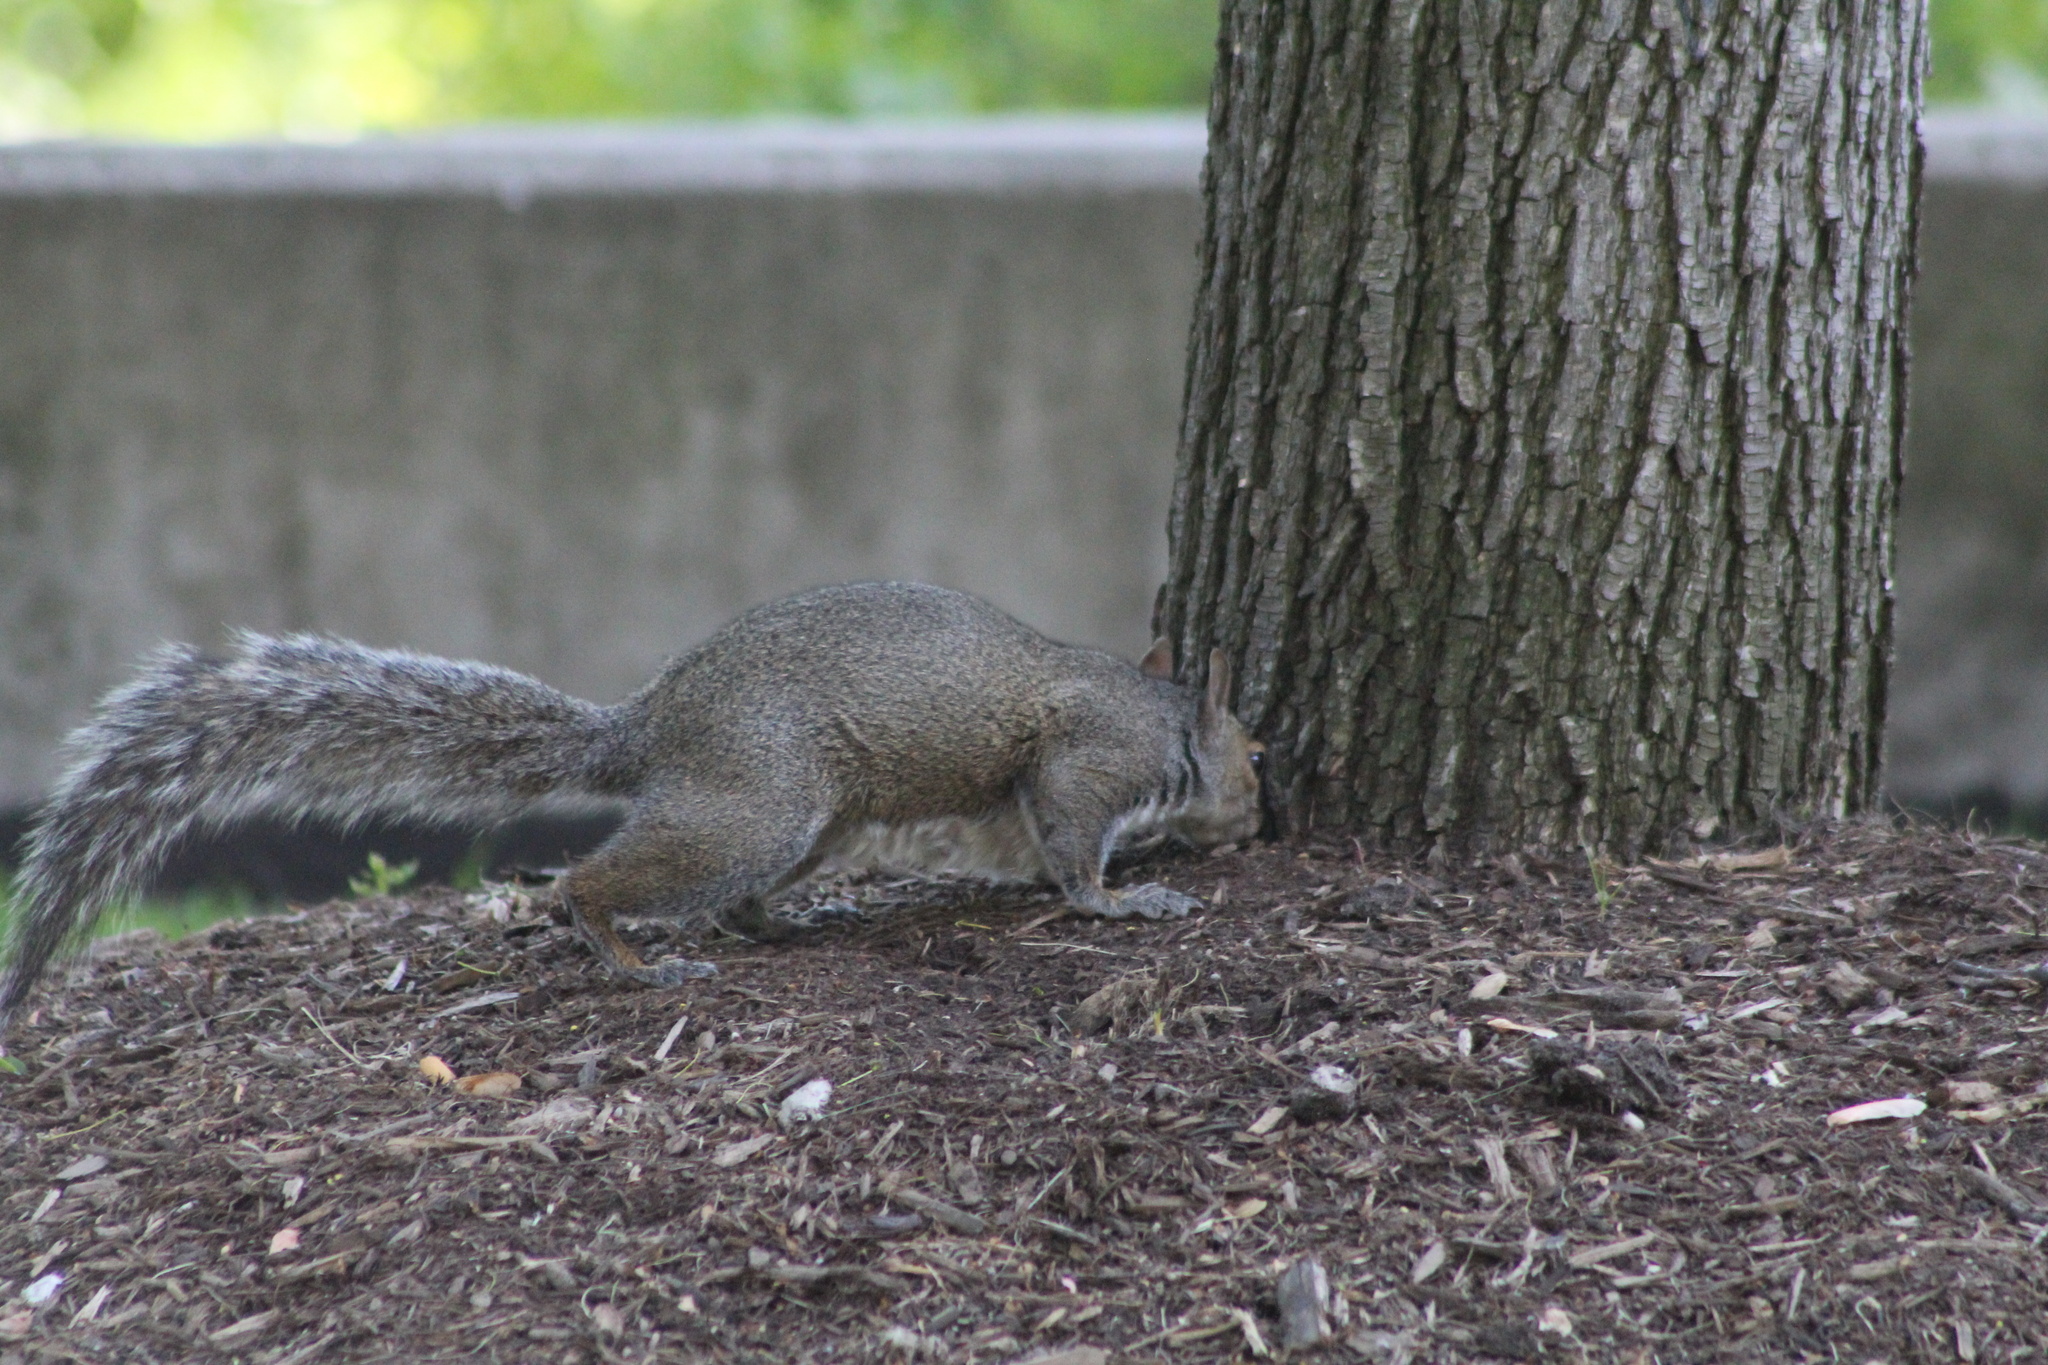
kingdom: Animalia
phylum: Chordata
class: Mammalia
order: Rodentia
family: Sciuridae
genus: Sciurus
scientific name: Sciurus carolinensis
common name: Eastern gray squirrel
